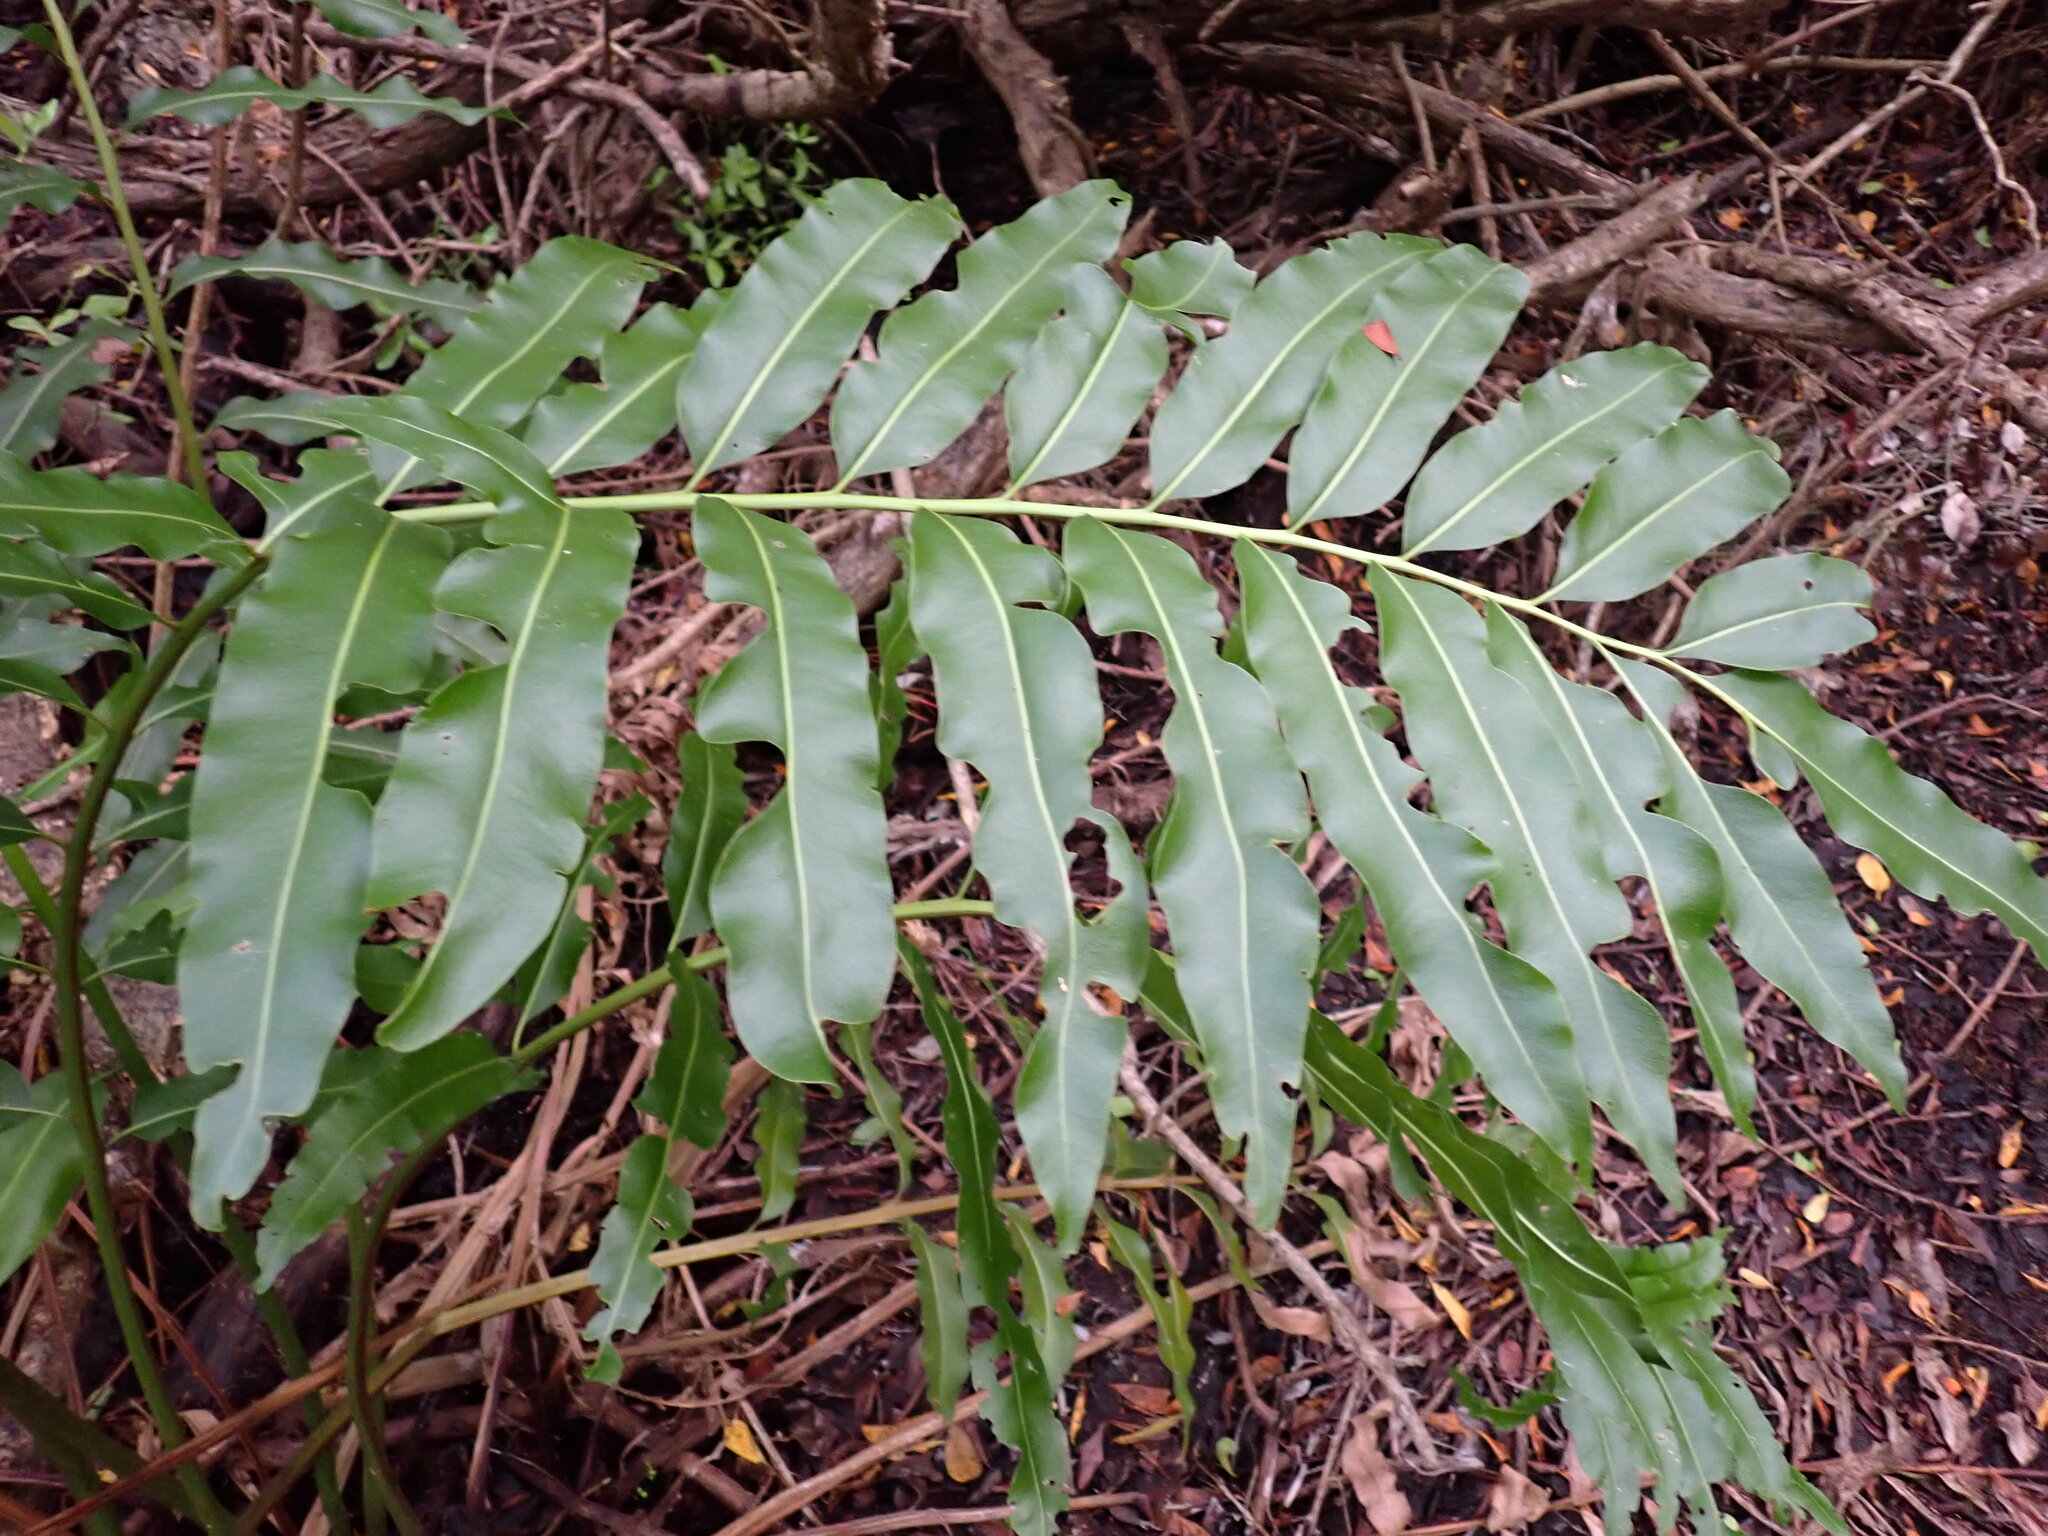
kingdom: Plantae
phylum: Tracheophyta
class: Polypodiopsida
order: Polypodiales
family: Pteridaceae
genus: Acrostichum
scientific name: Acrostichum danaeifolium
